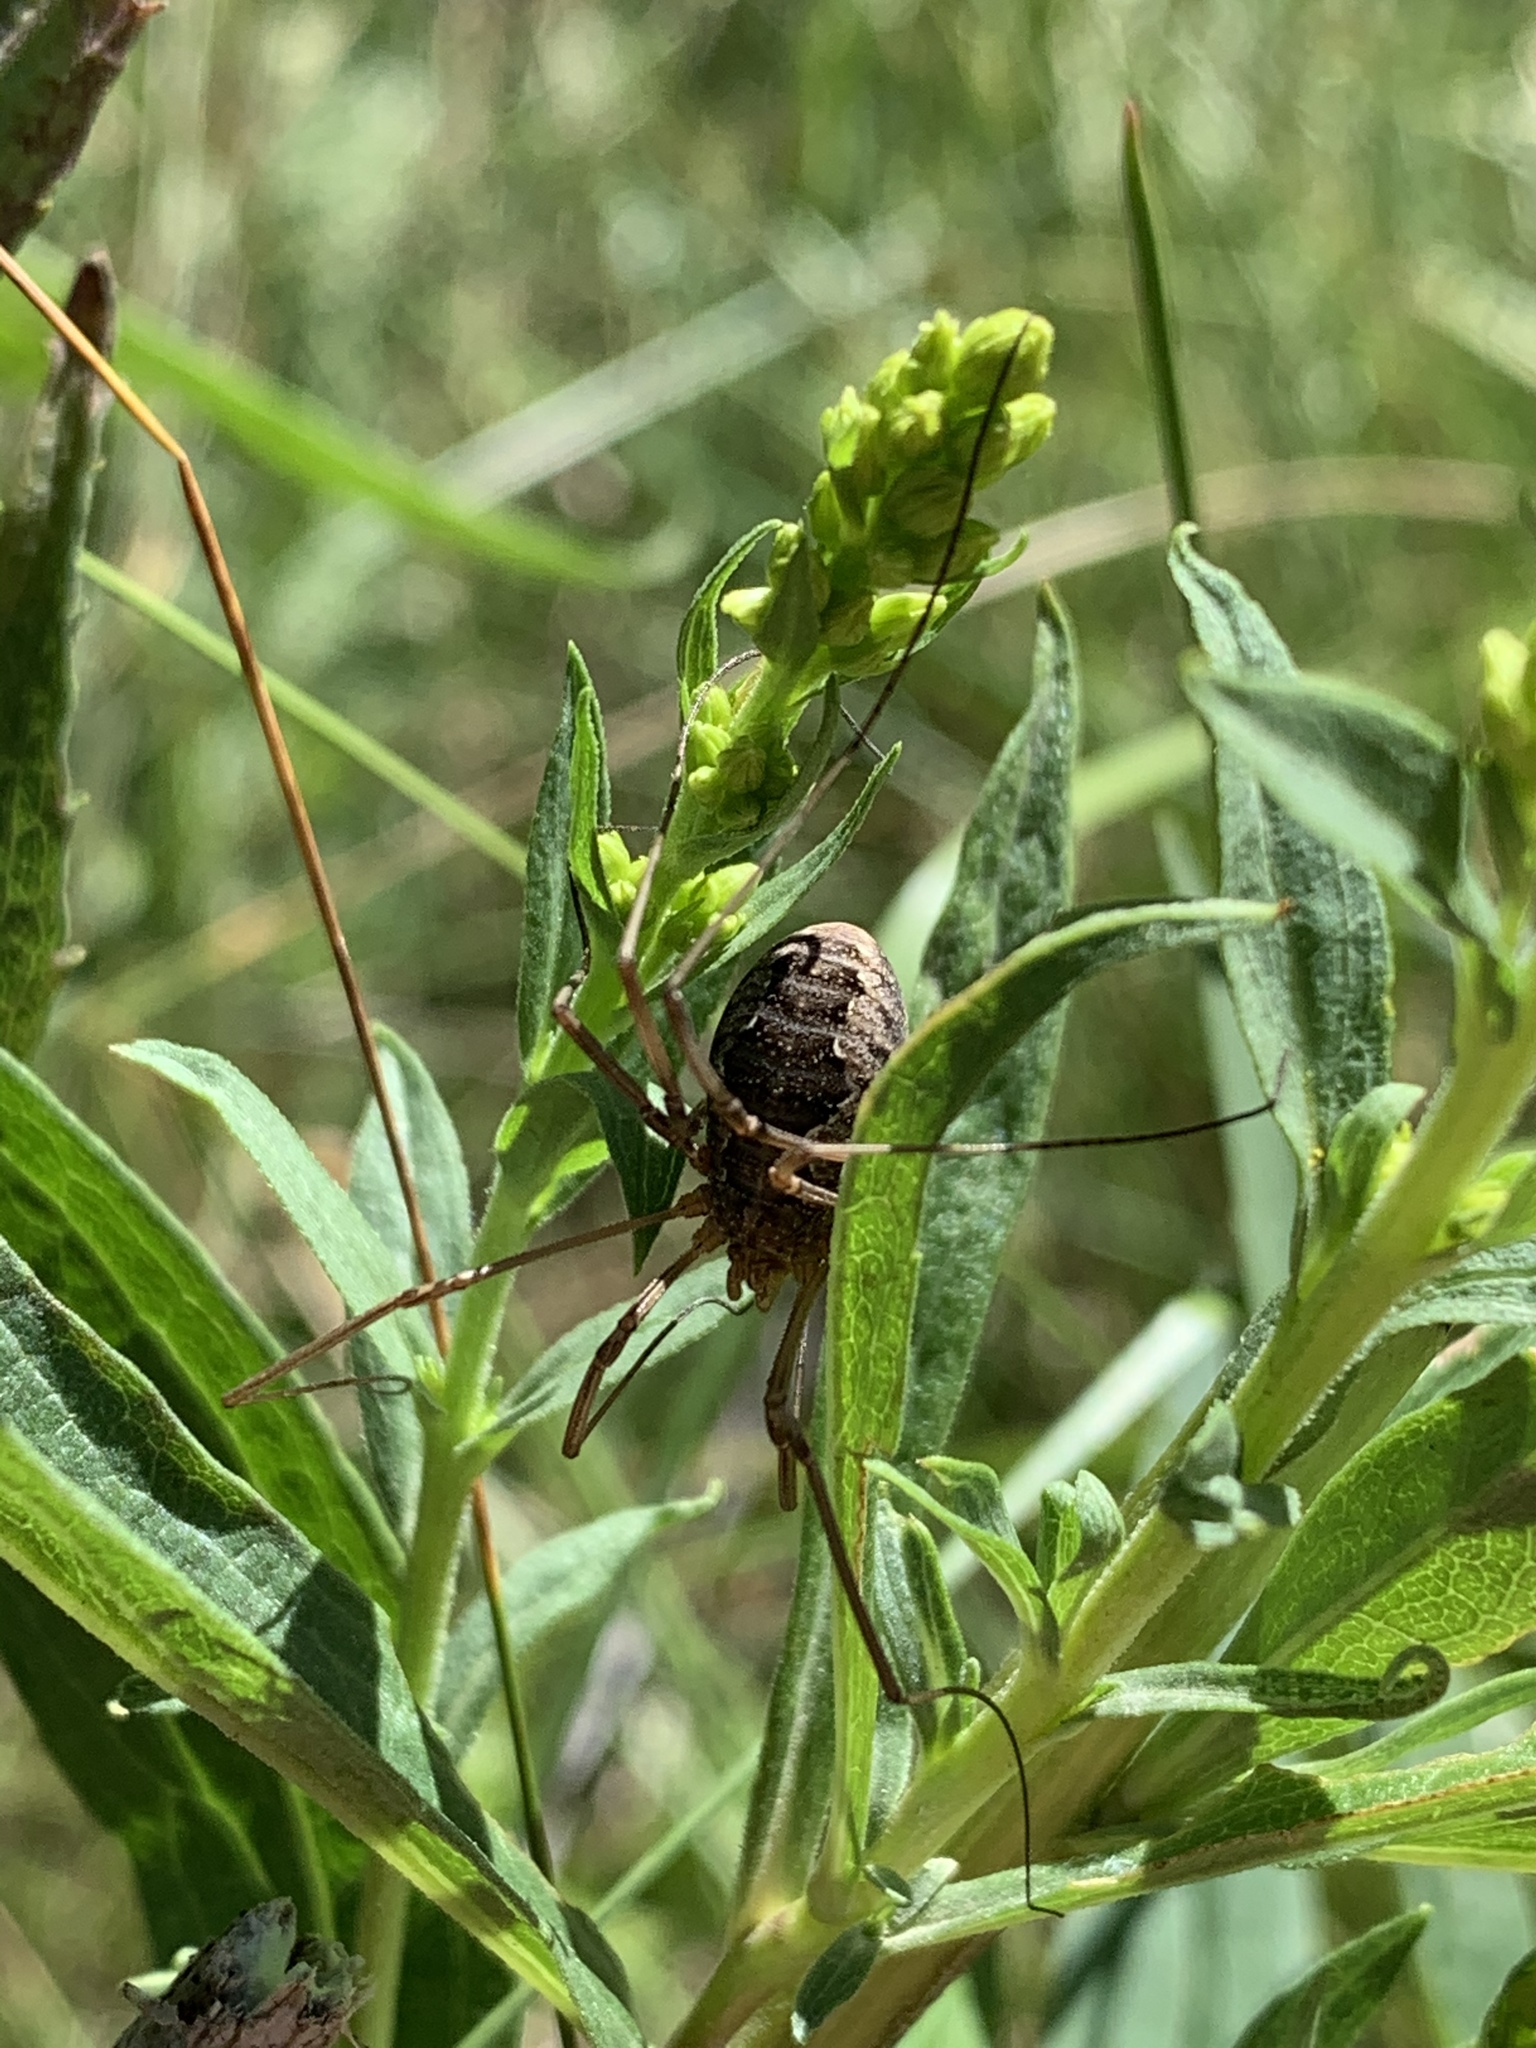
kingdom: Animalia
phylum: Arthropoda
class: Arachnida
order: Opiliones
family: Phalangiidae
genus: Phalangium
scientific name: Phalangium opilio
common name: Daddy longleg
